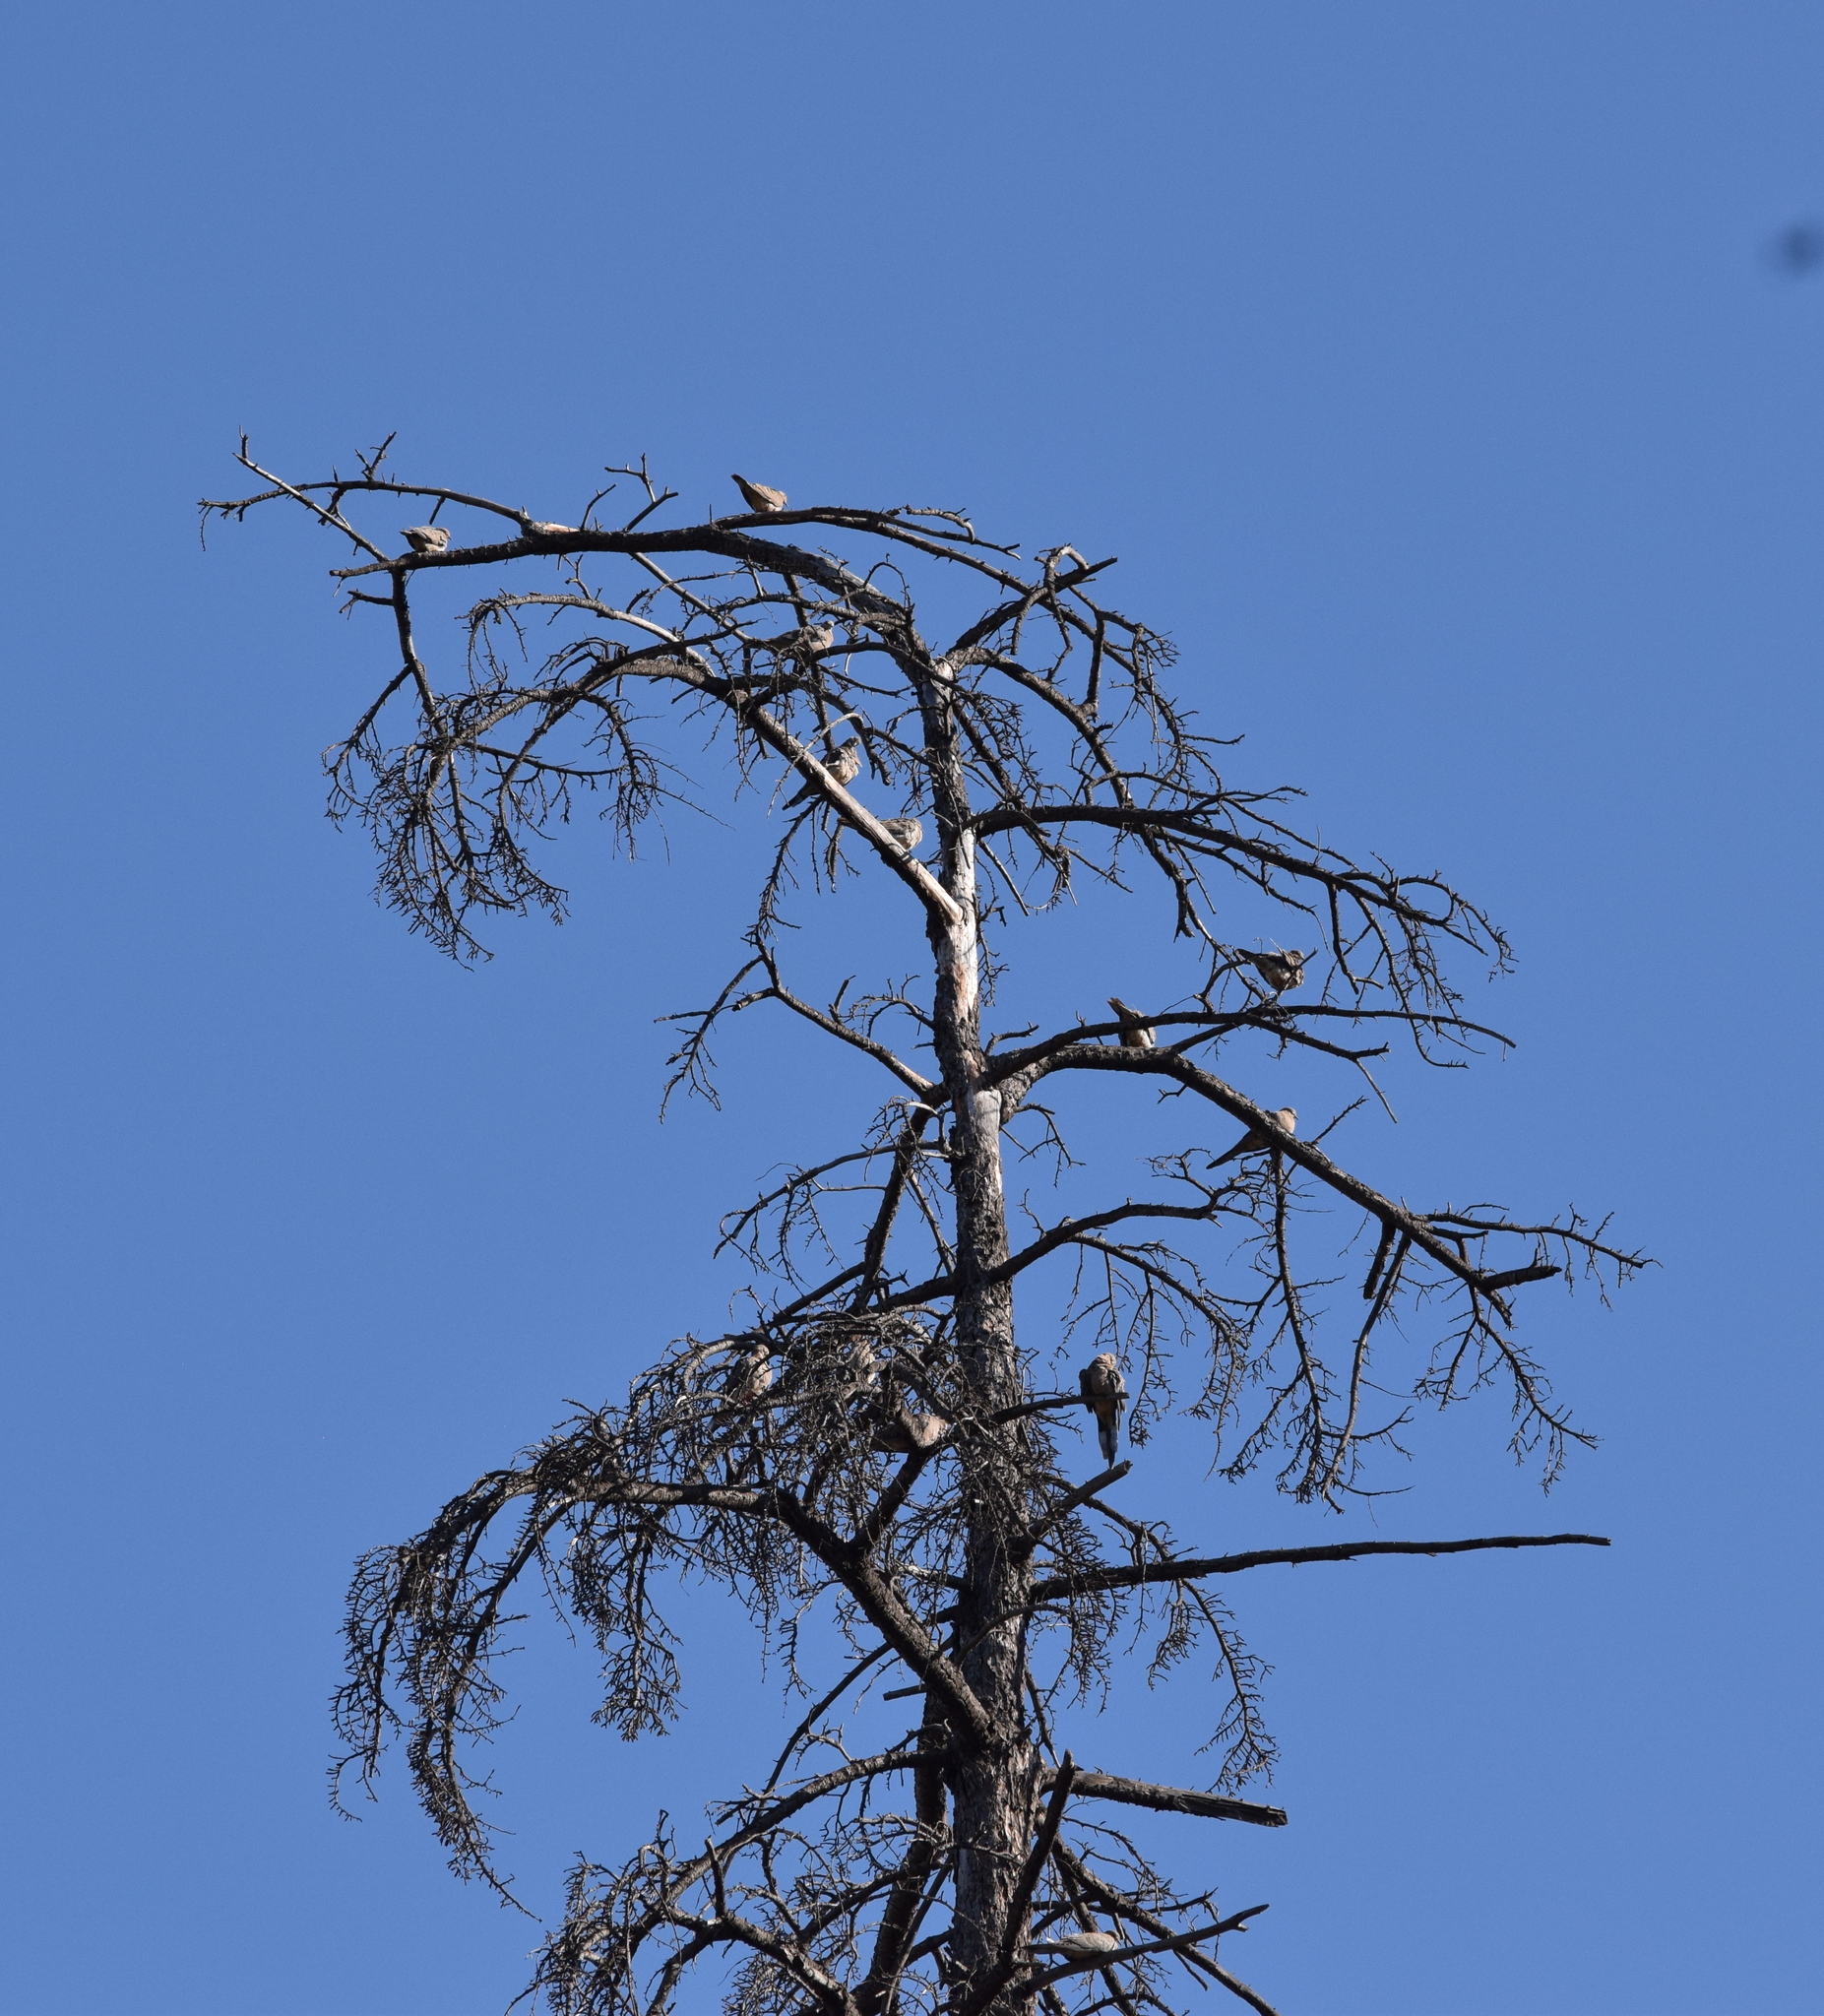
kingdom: Animalia
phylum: Chordata
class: Aves
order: Columbiformes
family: Columbidae
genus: Zenaida
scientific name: Zenaida macroura
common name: Mourning dove
